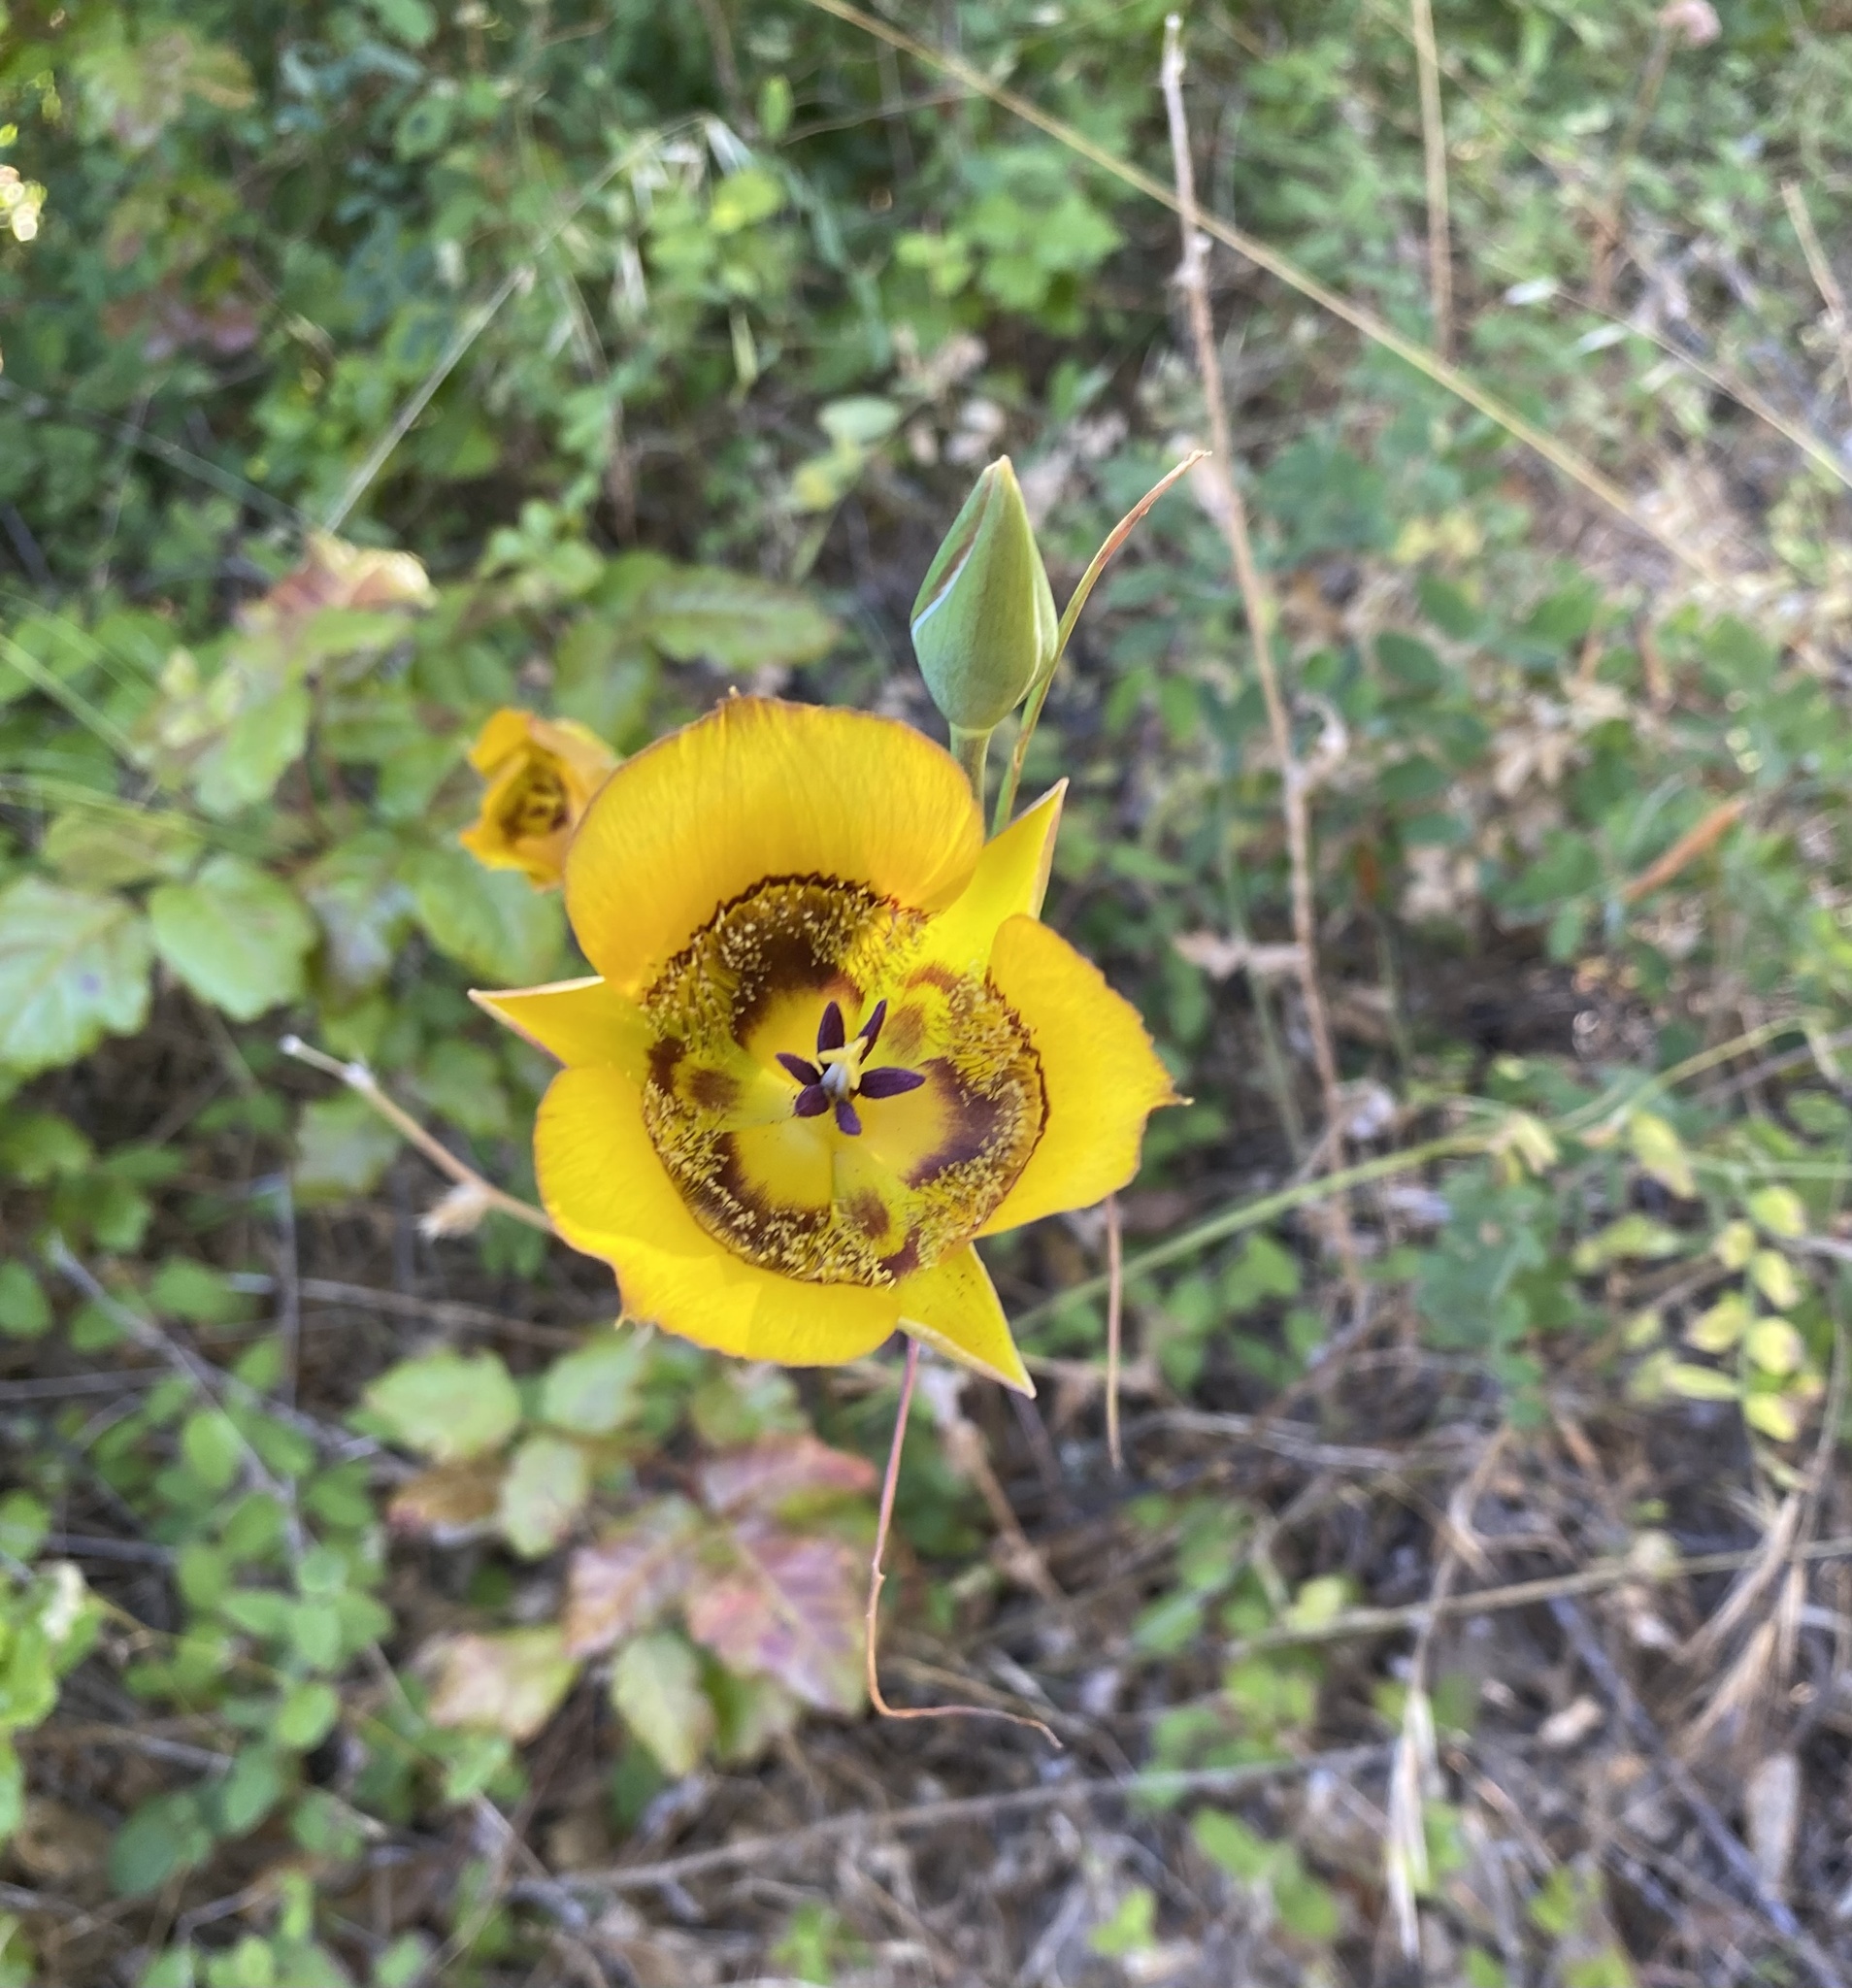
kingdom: Plantae
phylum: Tracheophyta
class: Liliopsida
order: Liliales
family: Liliaceae
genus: Calochortus
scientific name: Calochortus clavatus
